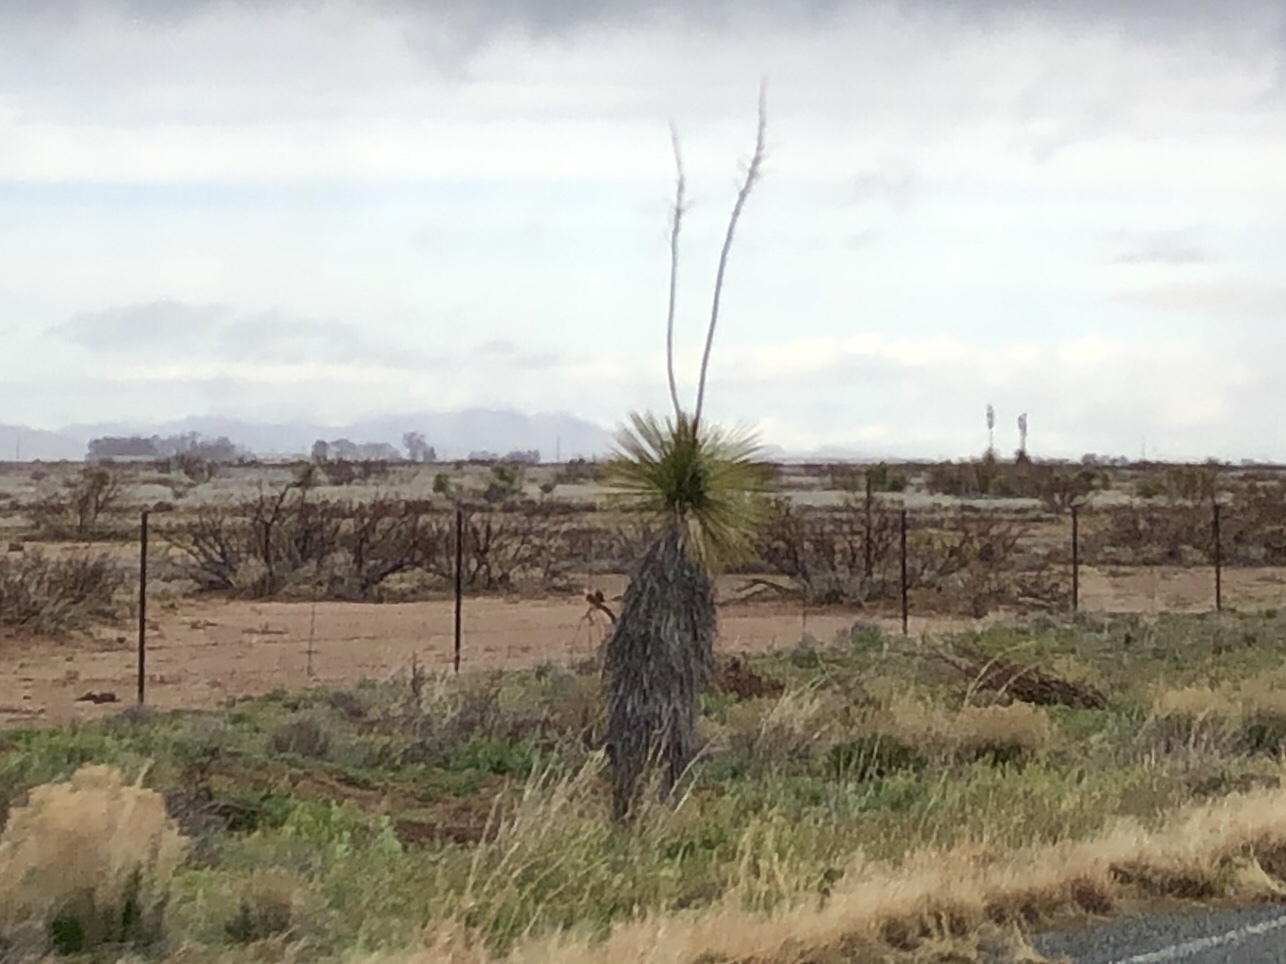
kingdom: Plantae
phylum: Tracheophyta
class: Liliopsida
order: Asparagales
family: Asparagaceae
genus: Yucca
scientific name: Yucca elata
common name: Palmella
